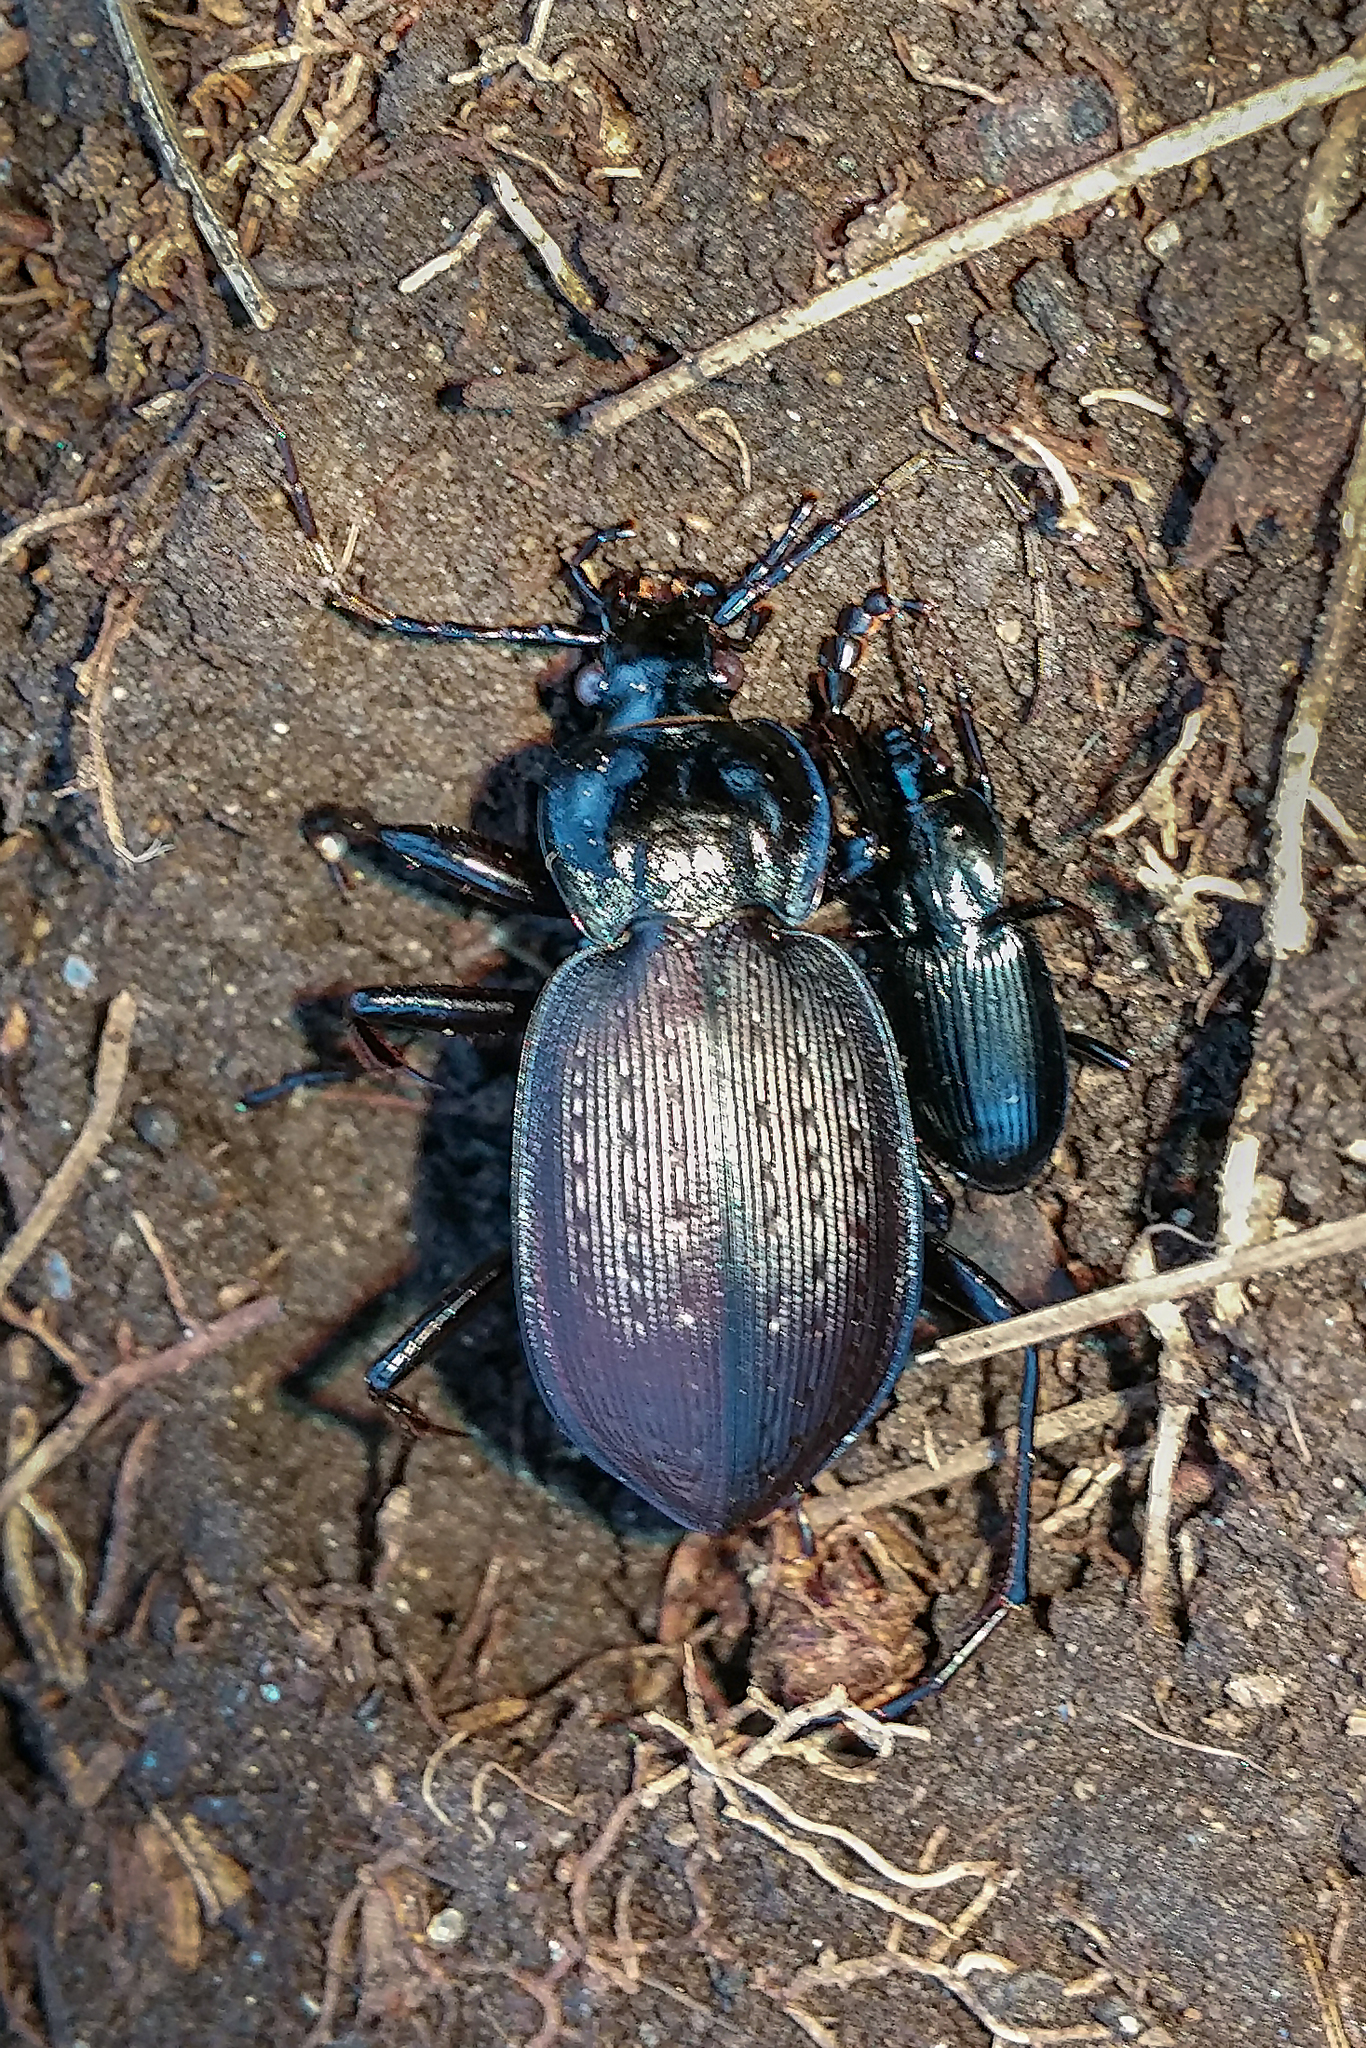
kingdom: Animalia
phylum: Arthropoda
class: Insecta
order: Coleoptera
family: Carabidae
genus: Carabus
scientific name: Carabus goryi
